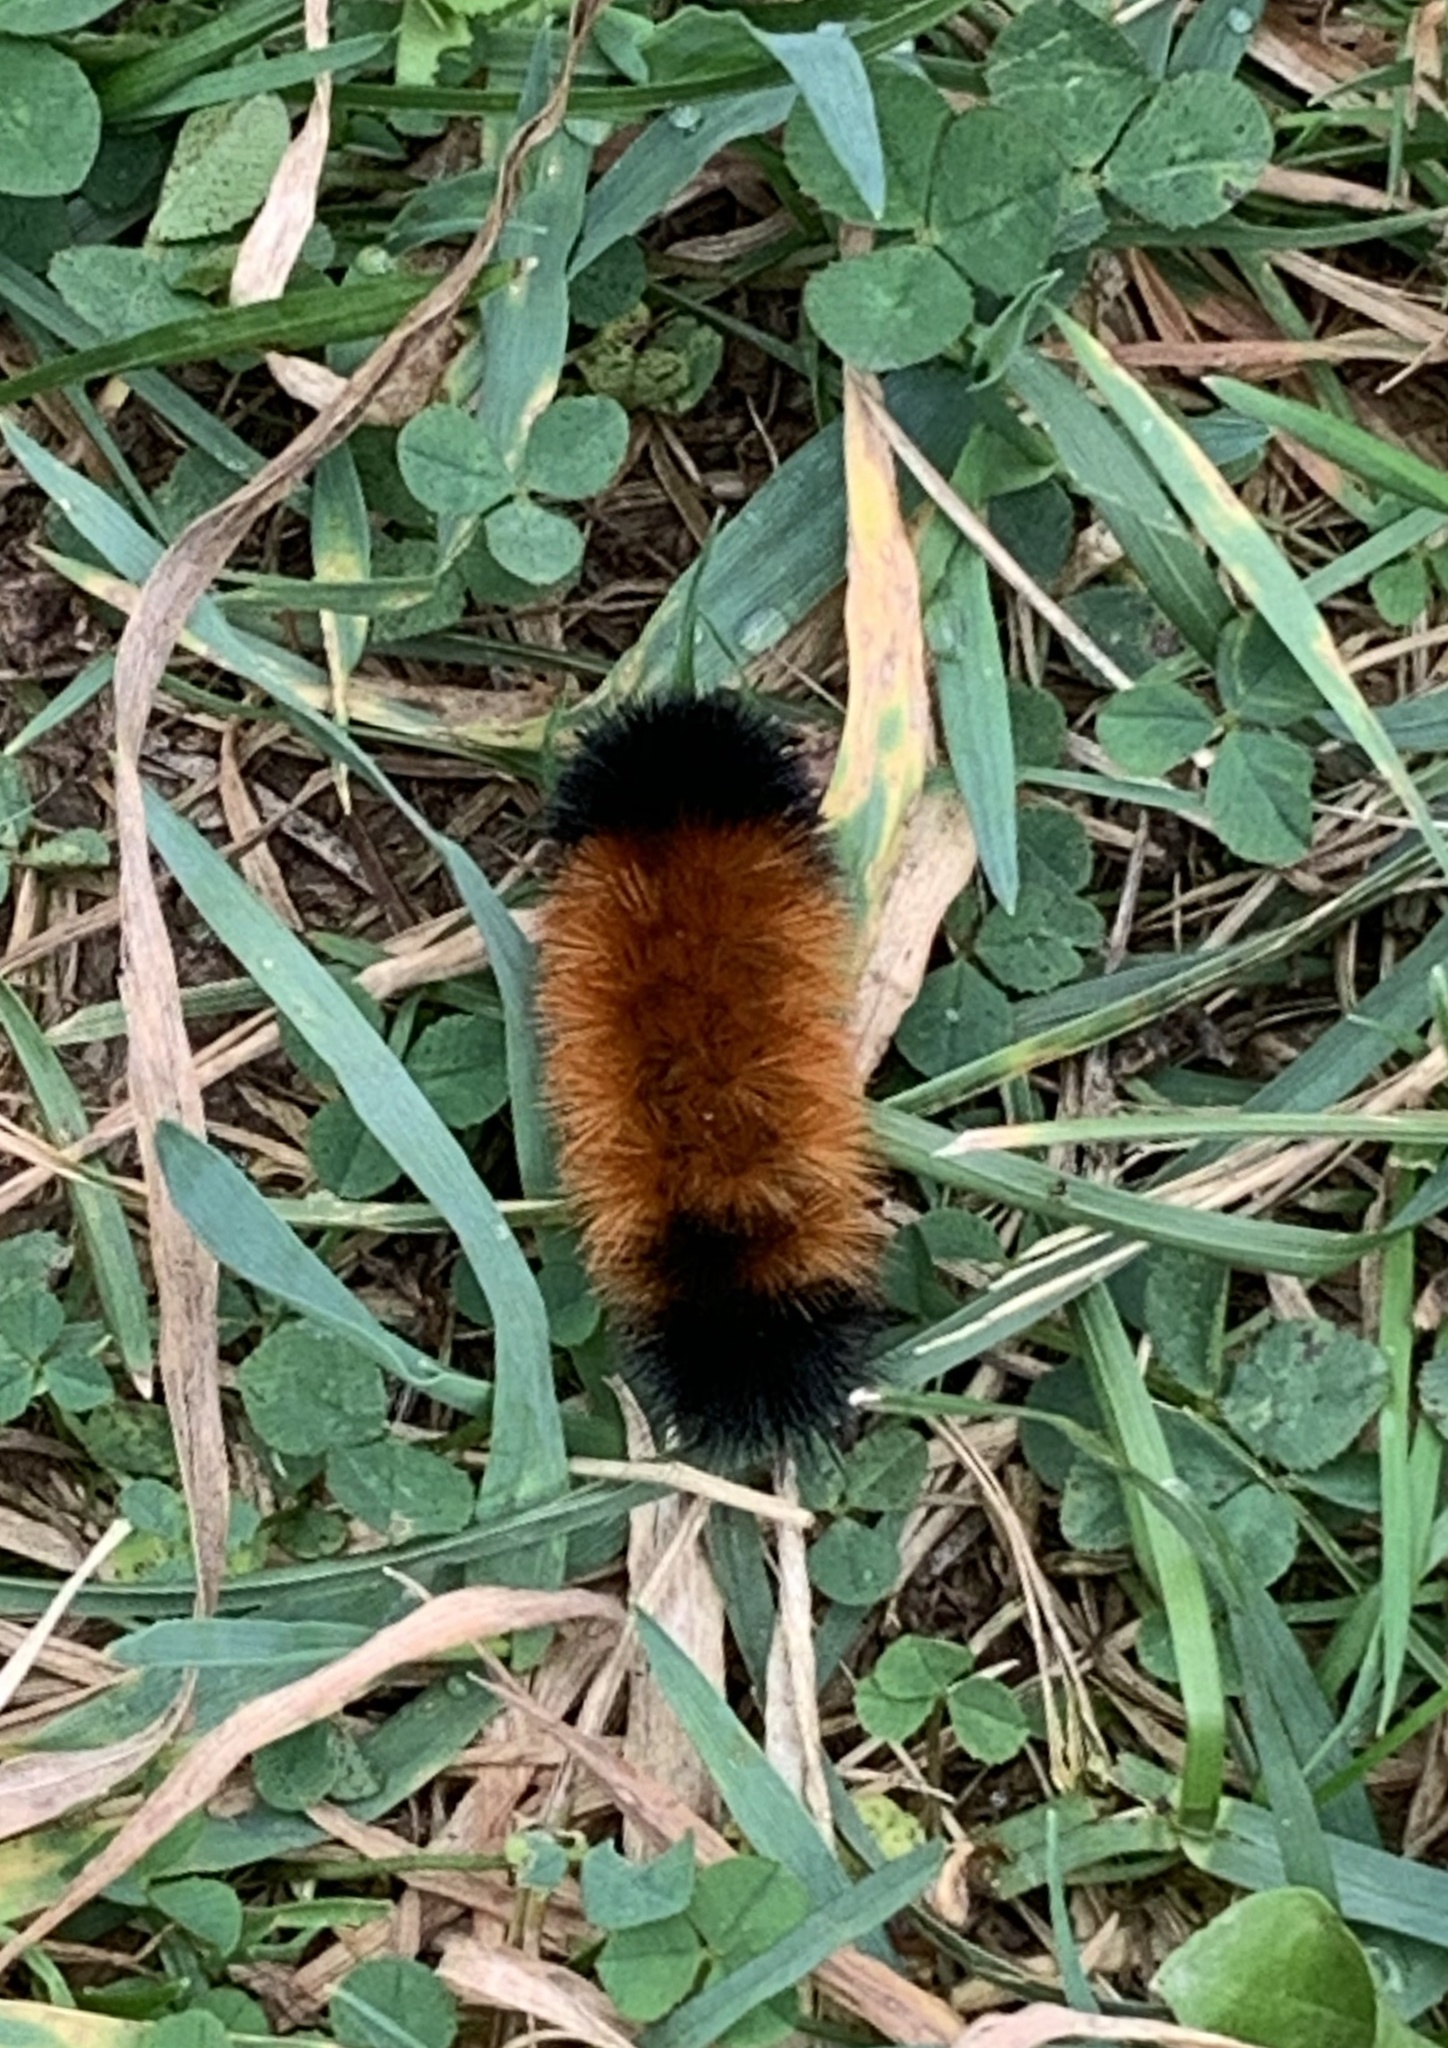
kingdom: Animalia
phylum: Arthropoda
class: Insecta
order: Lepidoptera
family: Erebidae
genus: Pyrrharctia
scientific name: Pyrrharctia isabella
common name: Isabella tiger moth
